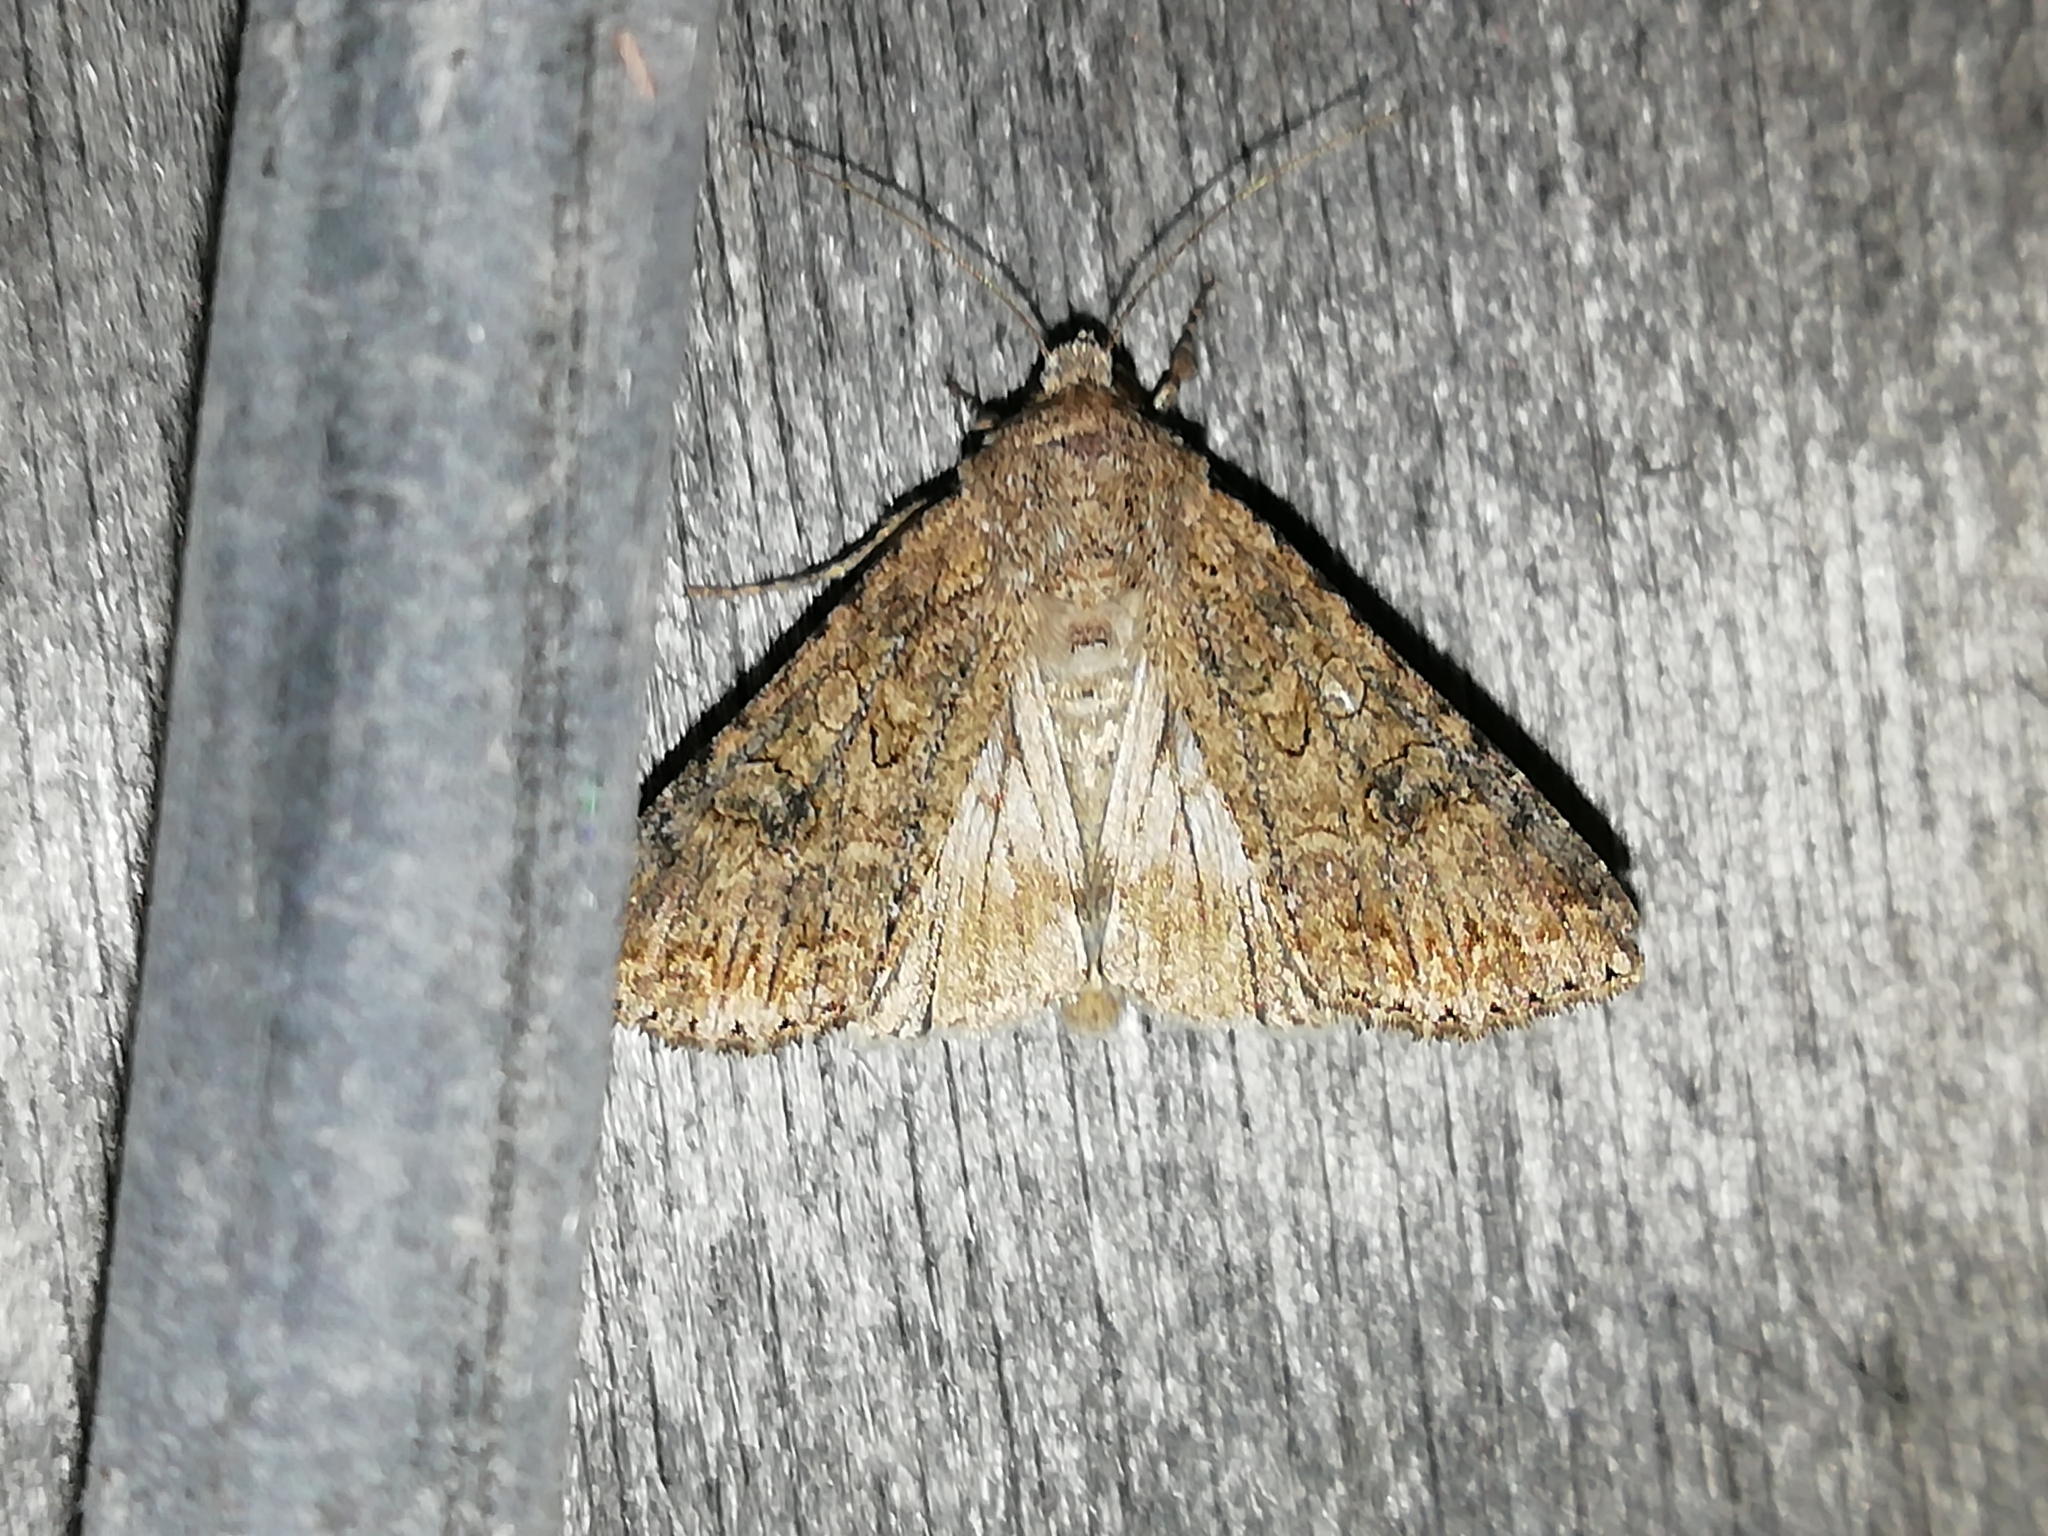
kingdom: Animalia
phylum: Arthropoda
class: Insecta
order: Lepidoptera
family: Noctuidae
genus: Anarta
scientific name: Anarta trifolii
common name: Clover cutworm moth
